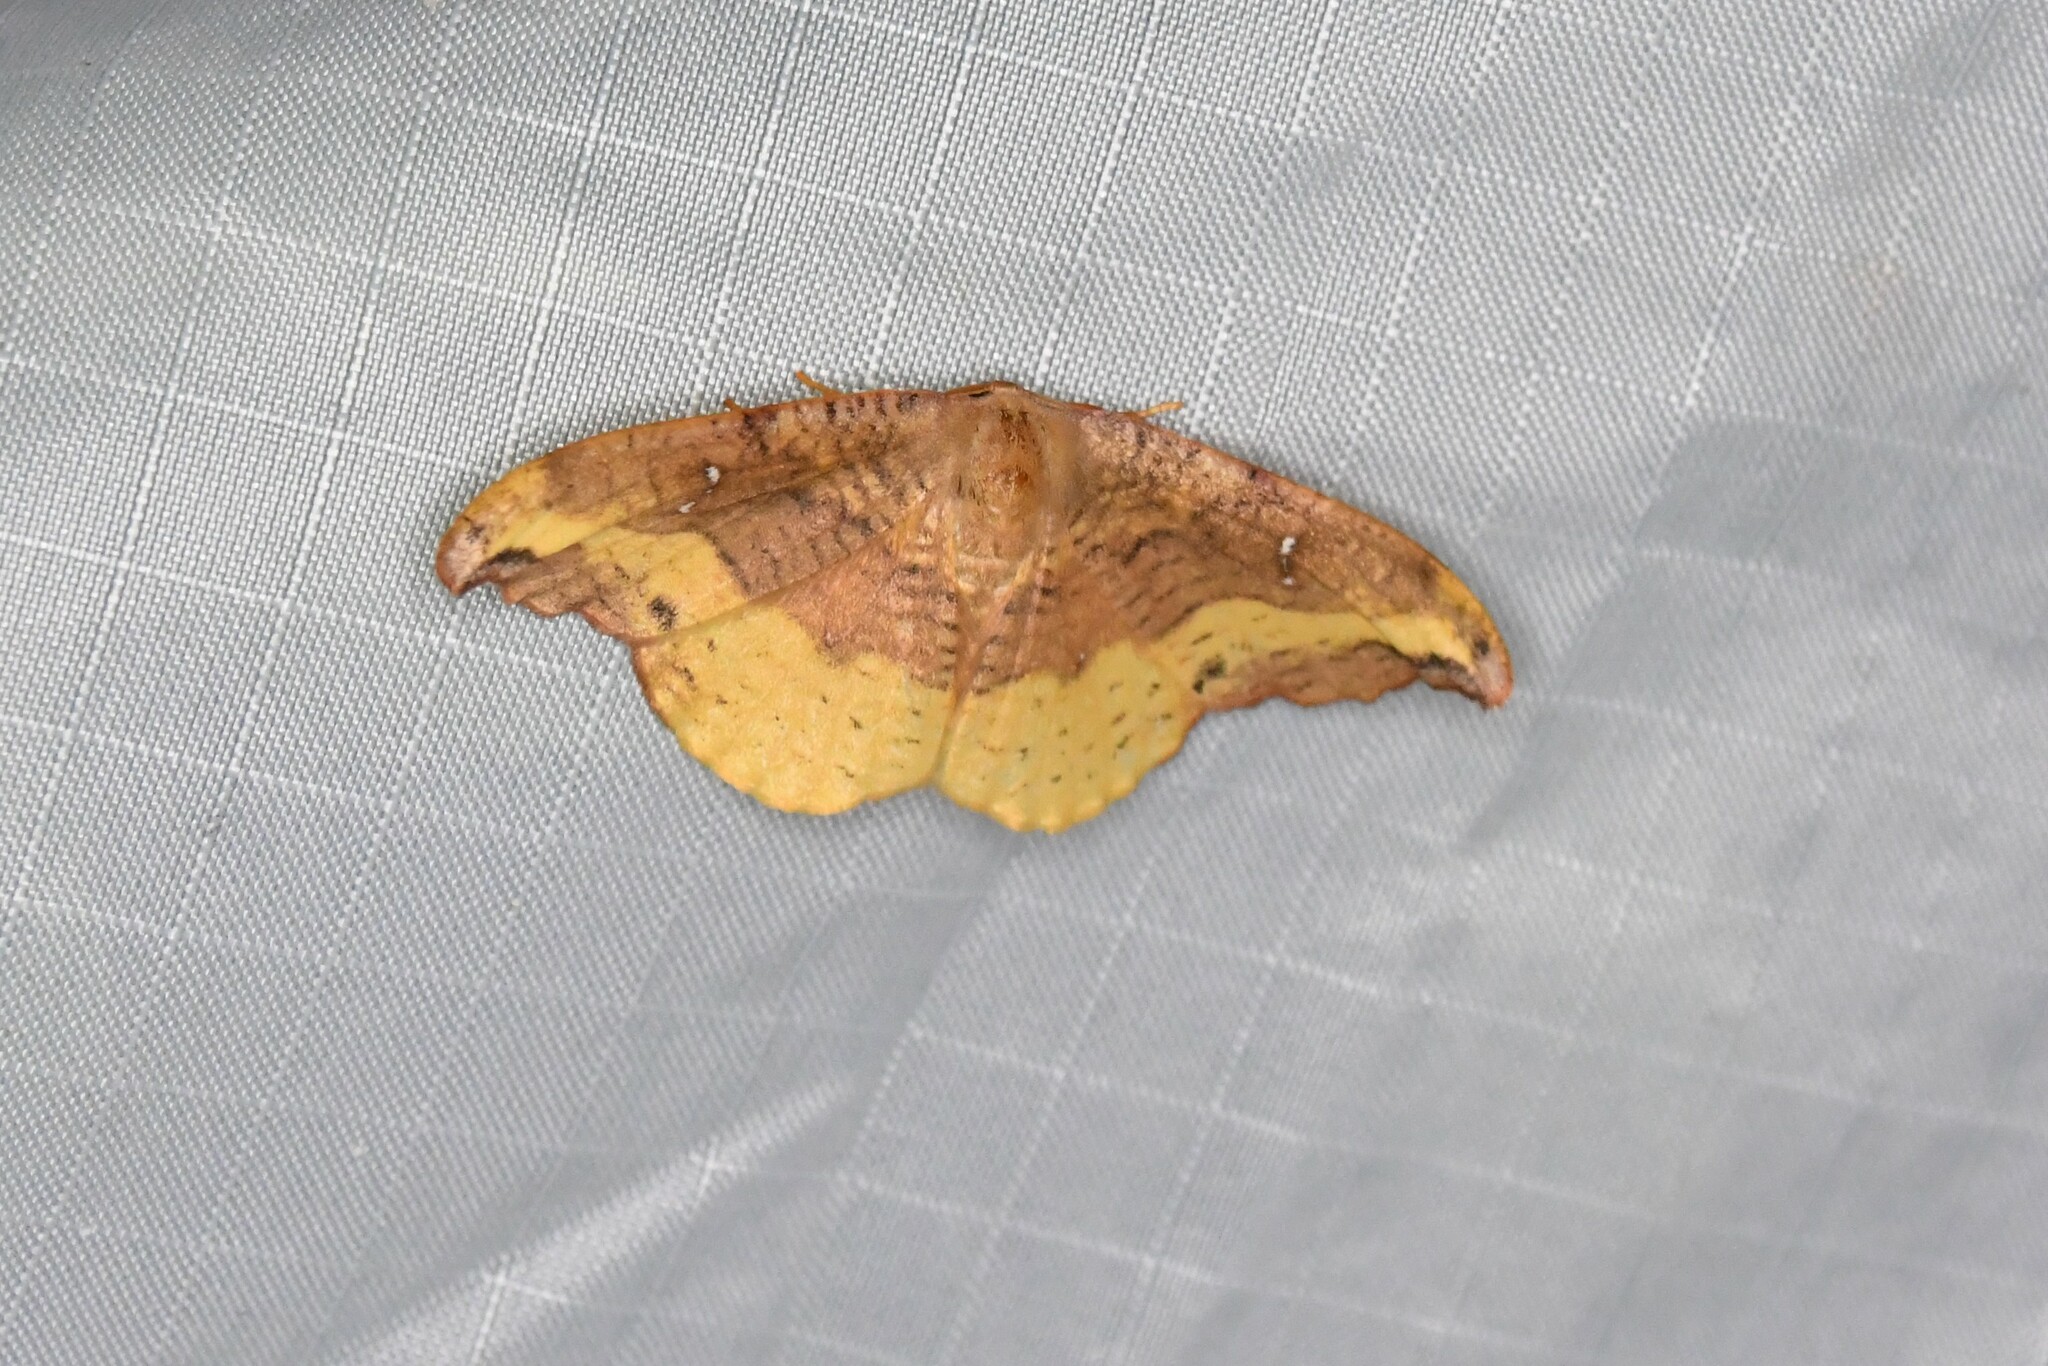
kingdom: Animalia
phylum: Arthropoda
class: Insecta
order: Lepidoptera
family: Drepanidae
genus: Oreta
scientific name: Oreta rosea
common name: Rose hooktip
